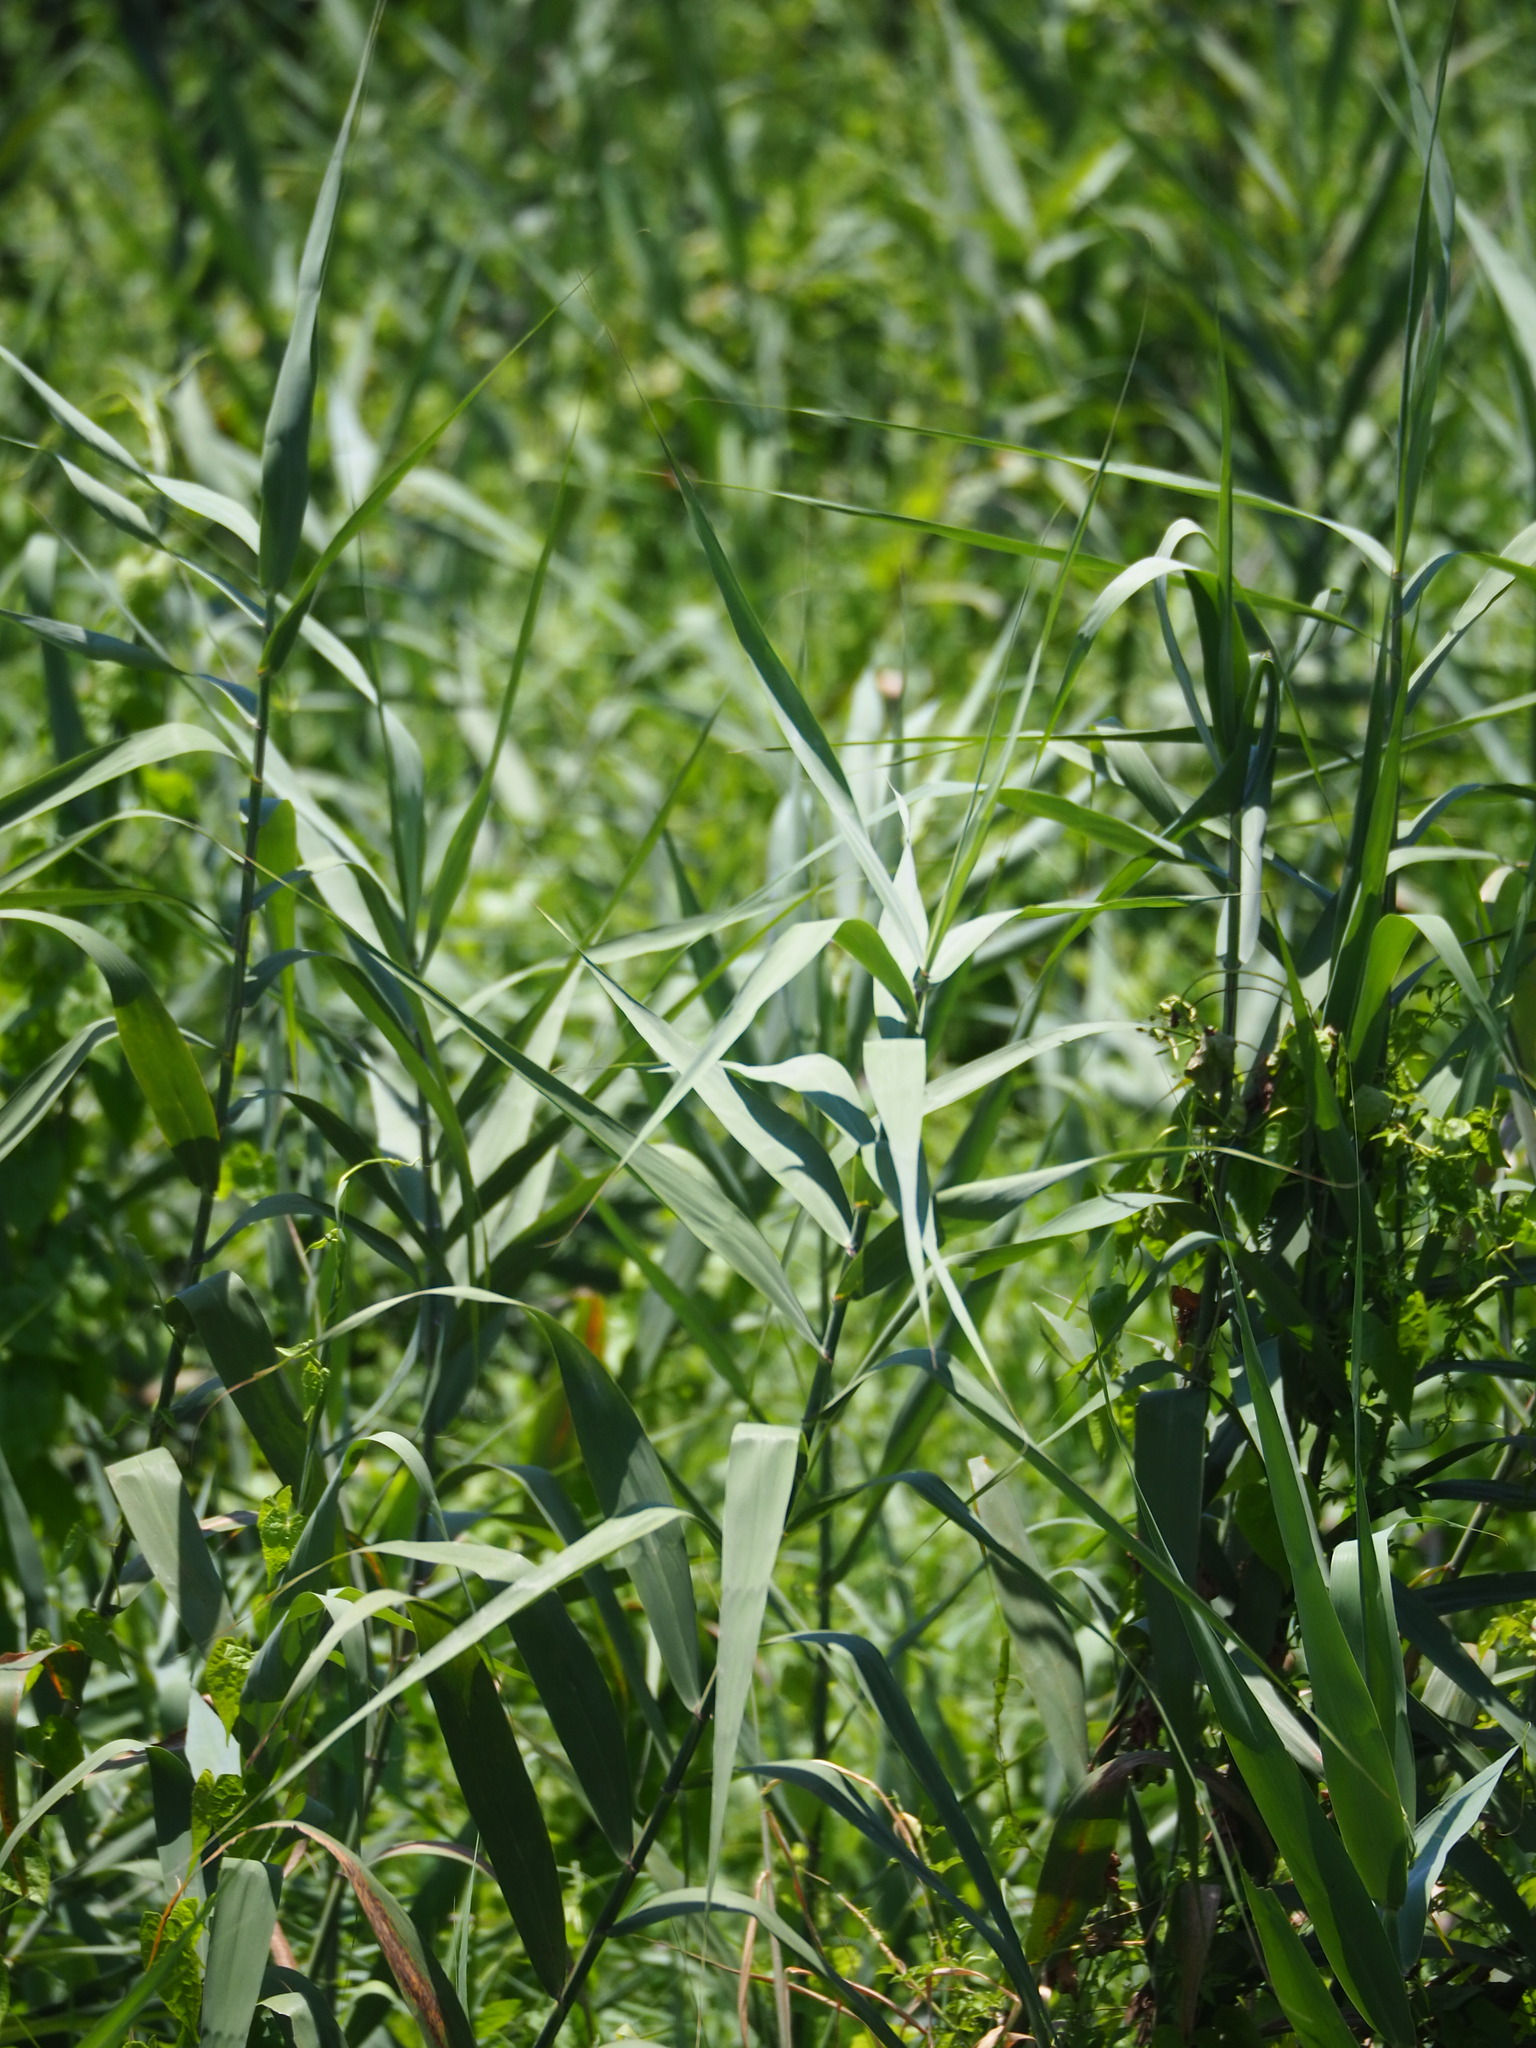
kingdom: Plantae
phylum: Tracheophyta
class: Liliopsida
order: Poales
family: Poaceae
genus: Phragmites
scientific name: Phragmites australis
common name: Common reed
